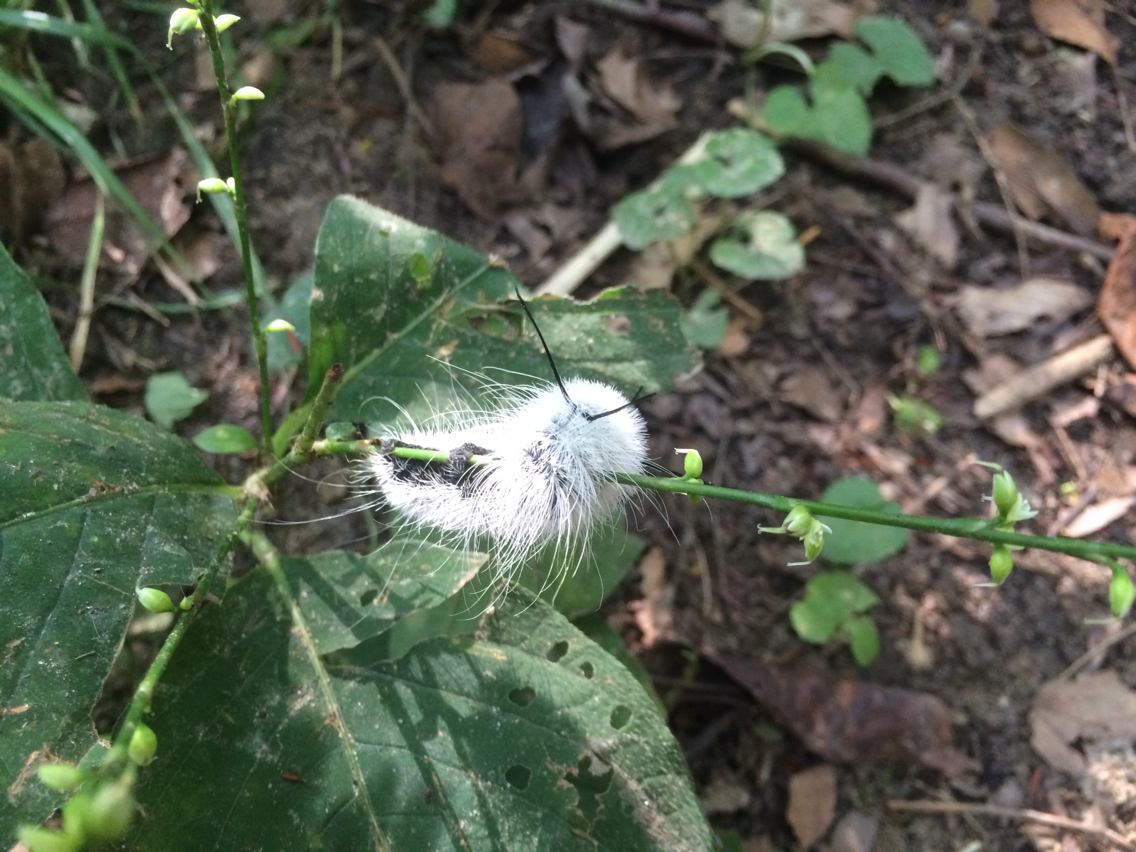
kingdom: Animalia
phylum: Arthropoda
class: Insecta
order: Lepidoptera
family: Noctuidae
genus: Acronicta
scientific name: Acronicta americana
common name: American dagger
